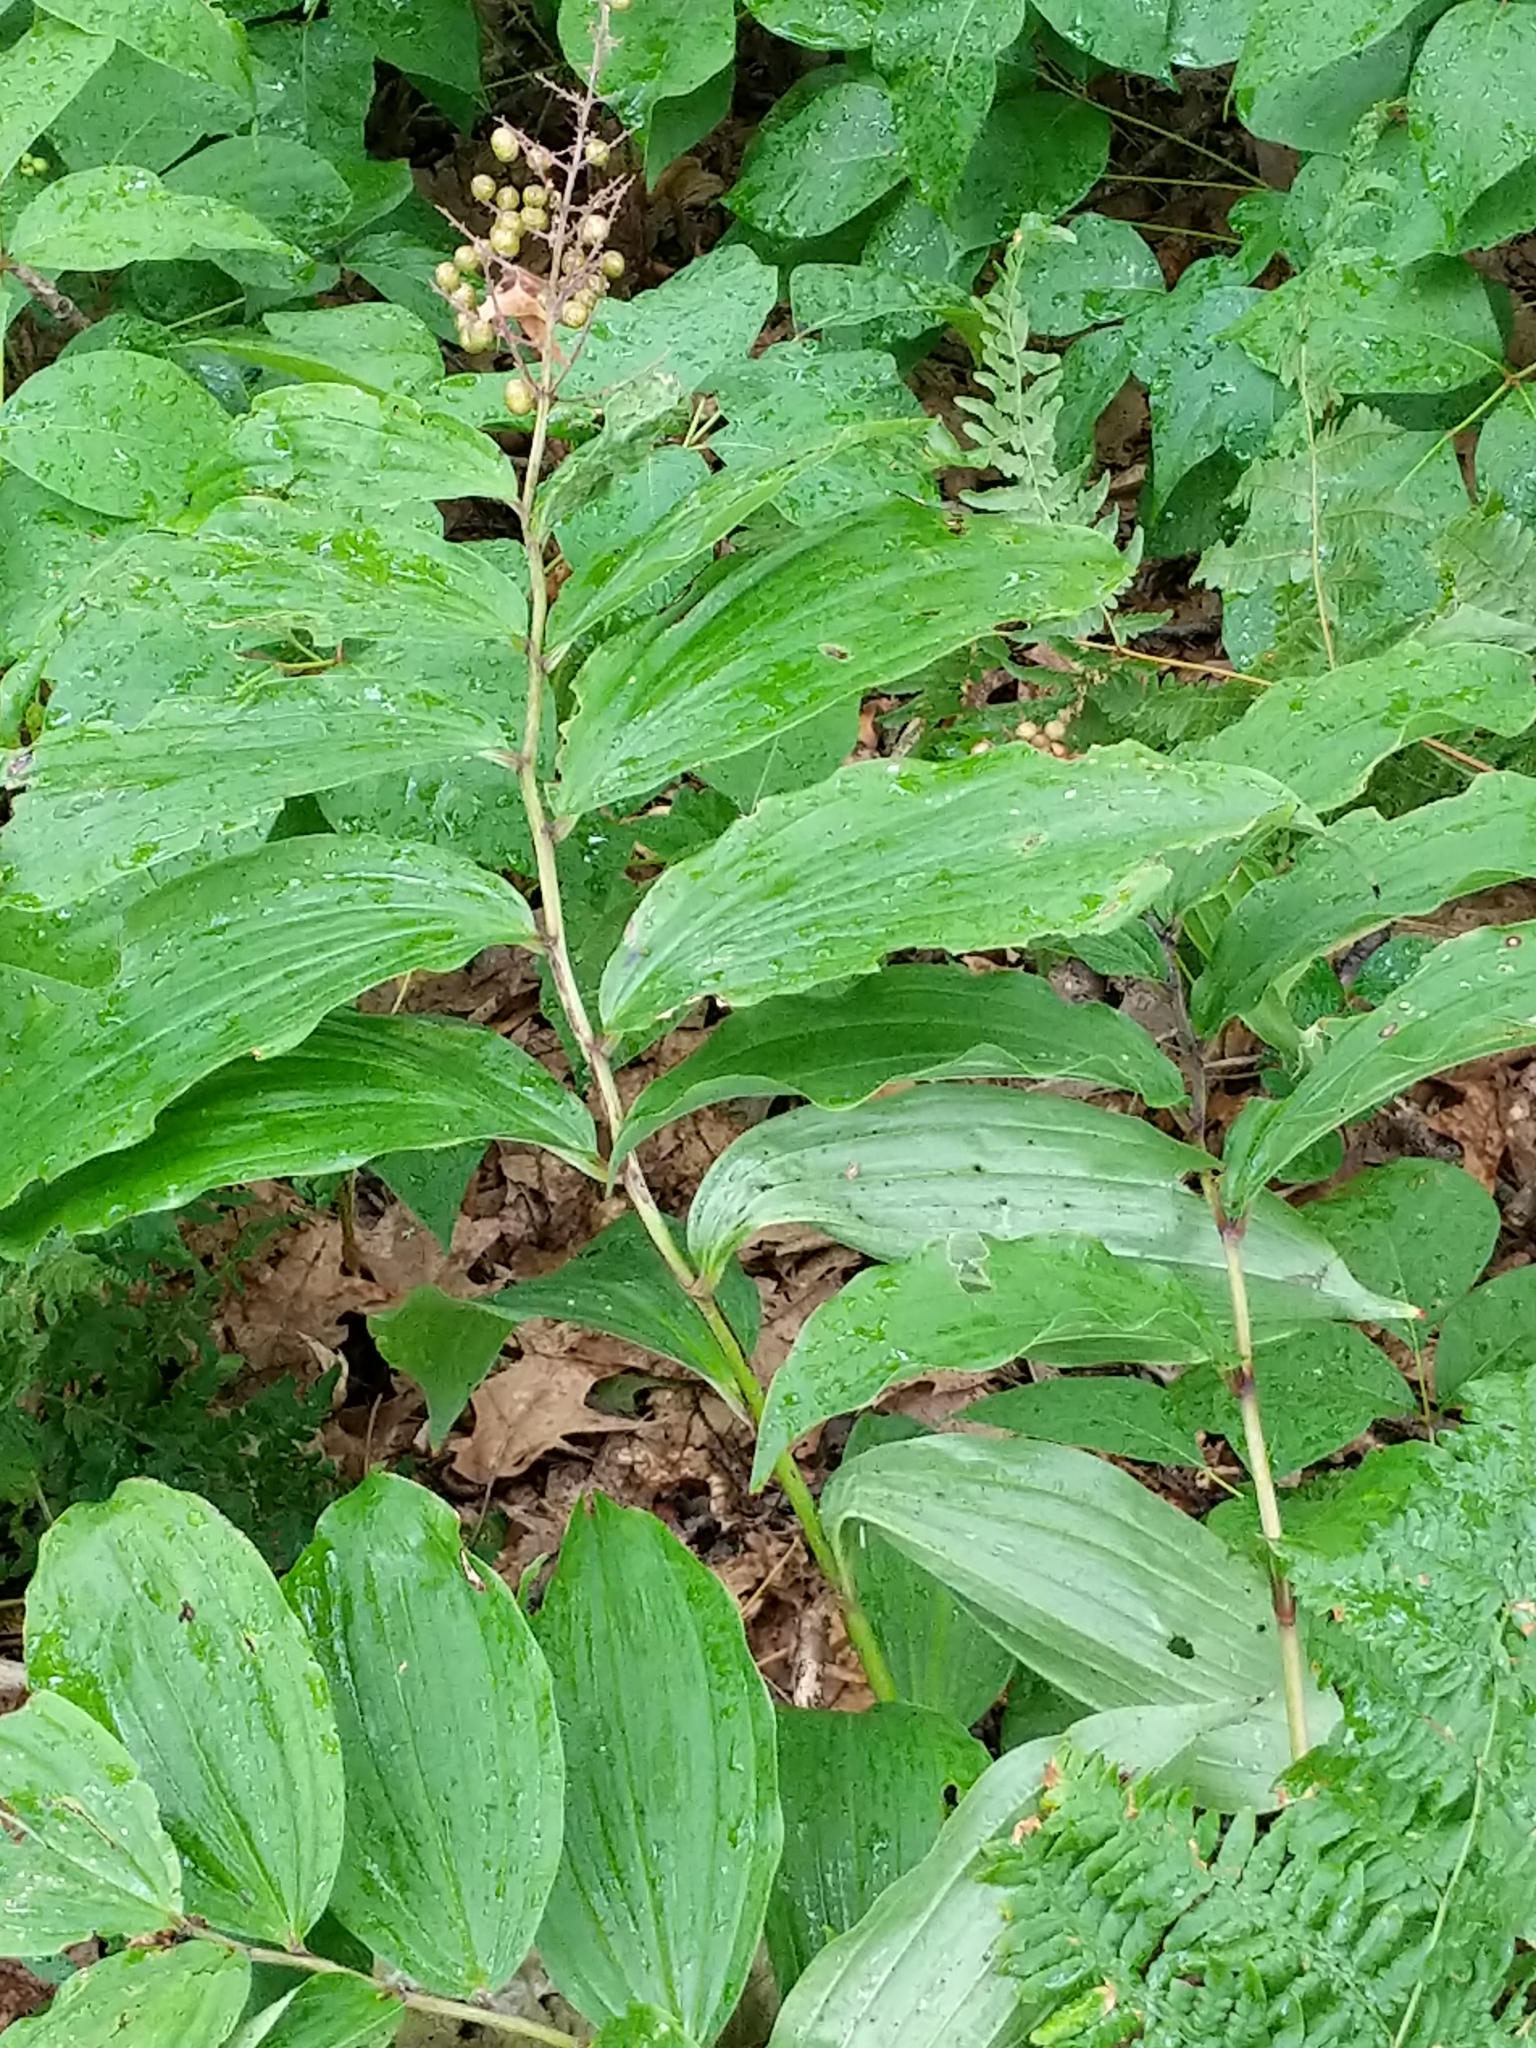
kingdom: Plantae
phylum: Tracheophyta
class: Liliopsida
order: Asparagales
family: Asparagaceae
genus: Maianthemum
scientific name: Maianthemum racemosum
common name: False spikenard
